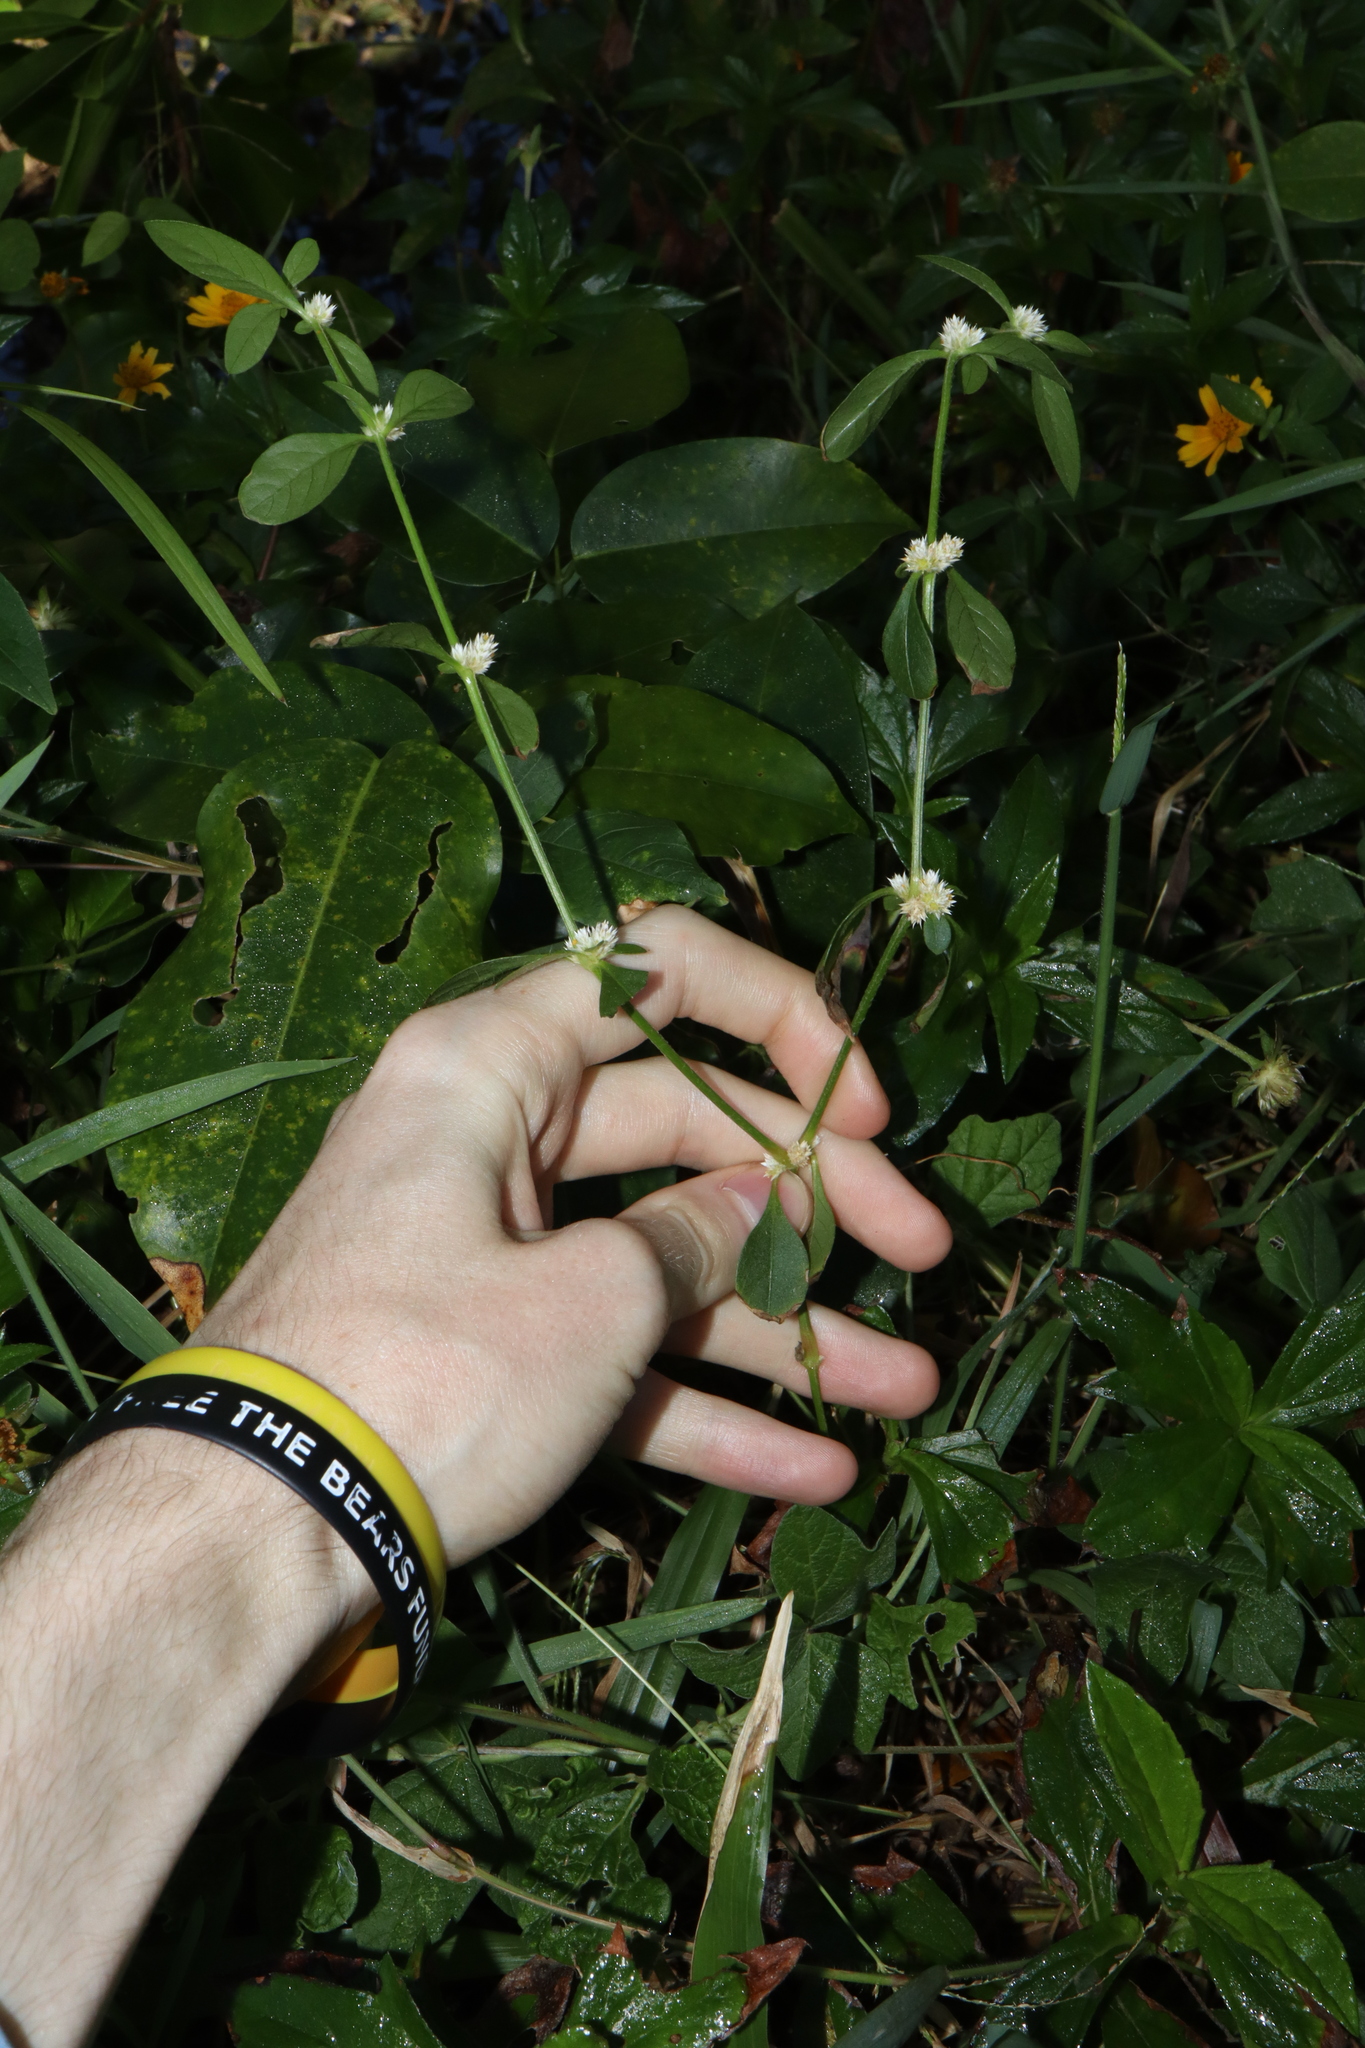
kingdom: Plantae
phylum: Tracheophyta
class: Magnoliopsida
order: Caryophyllales
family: Amaranthaceae
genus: Alternanthera
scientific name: Alternanthera ficoidea
